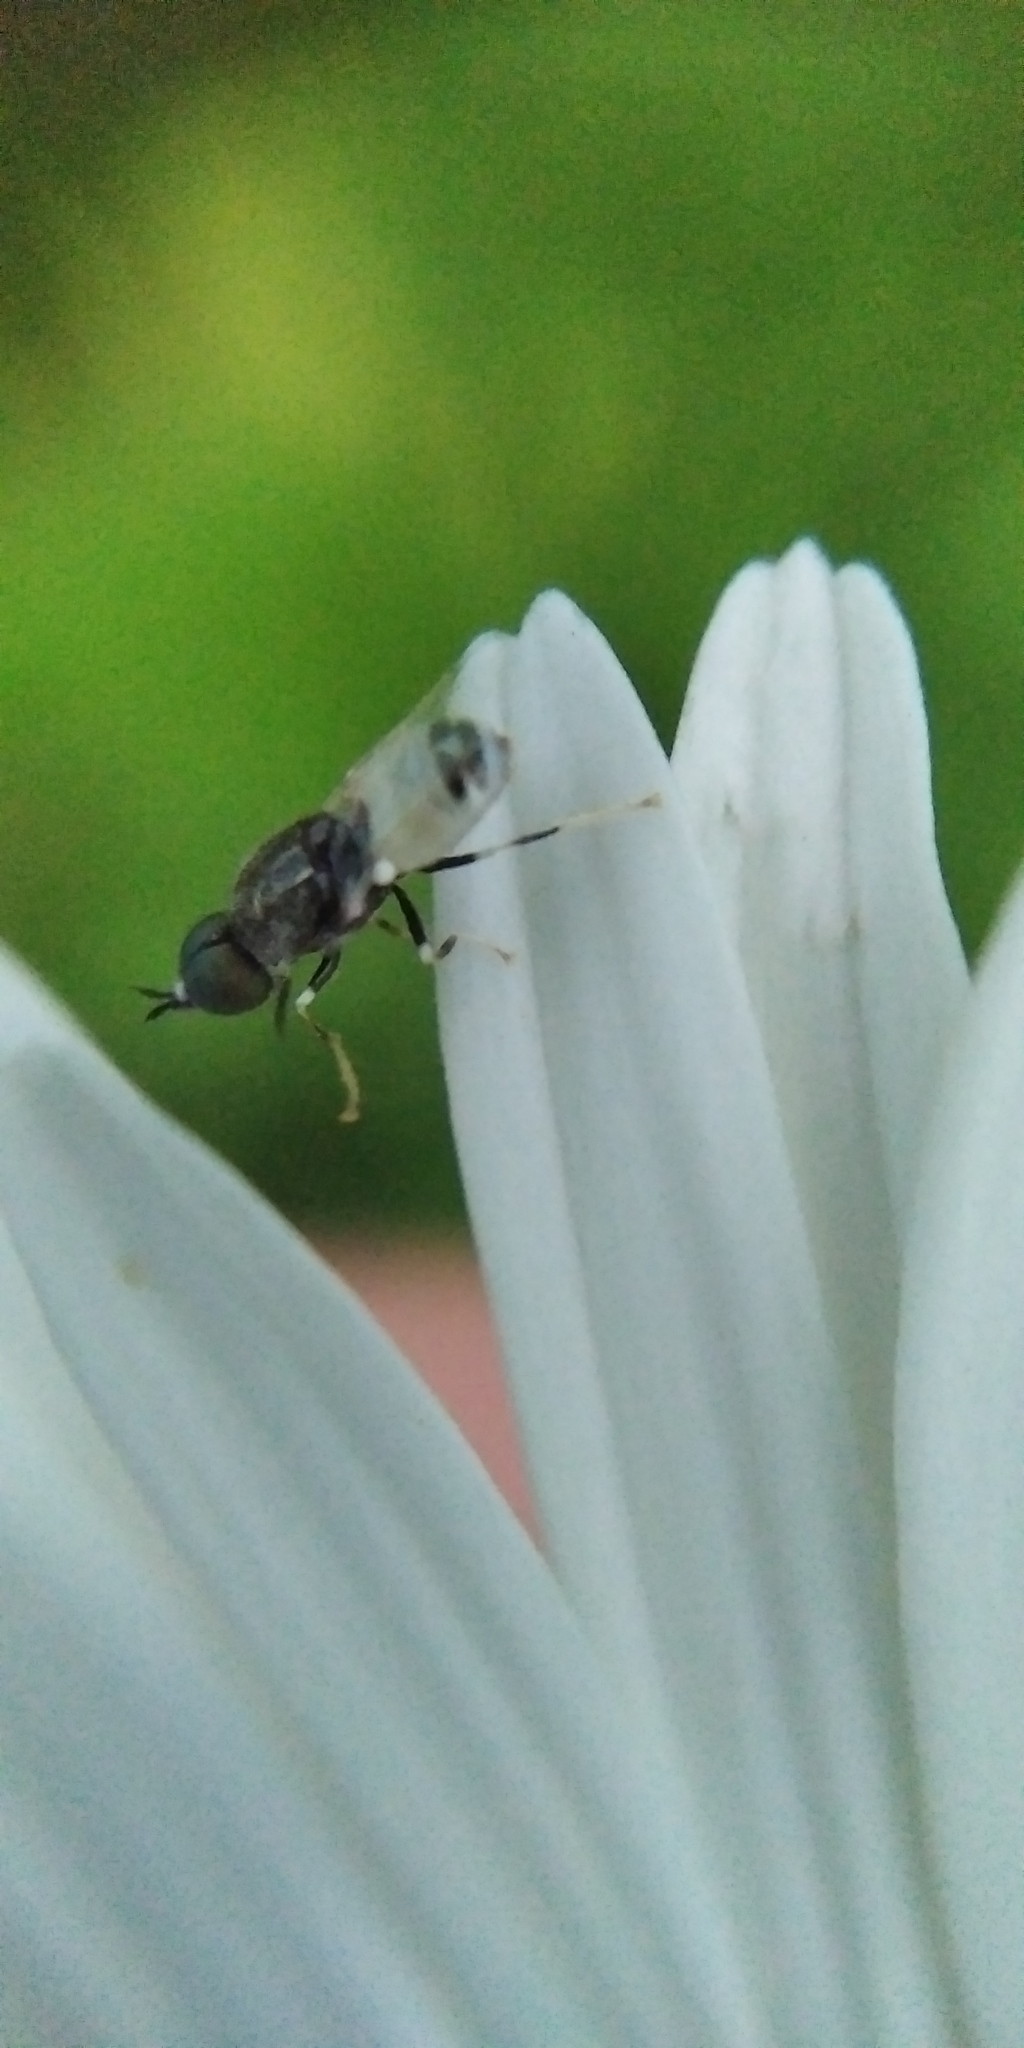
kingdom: Animalia
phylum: Arthropoda
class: Insecta
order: Diptera
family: Stratiomyidae
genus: Nemotelus
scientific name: Nemotelus pantherina
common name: Fen snout
